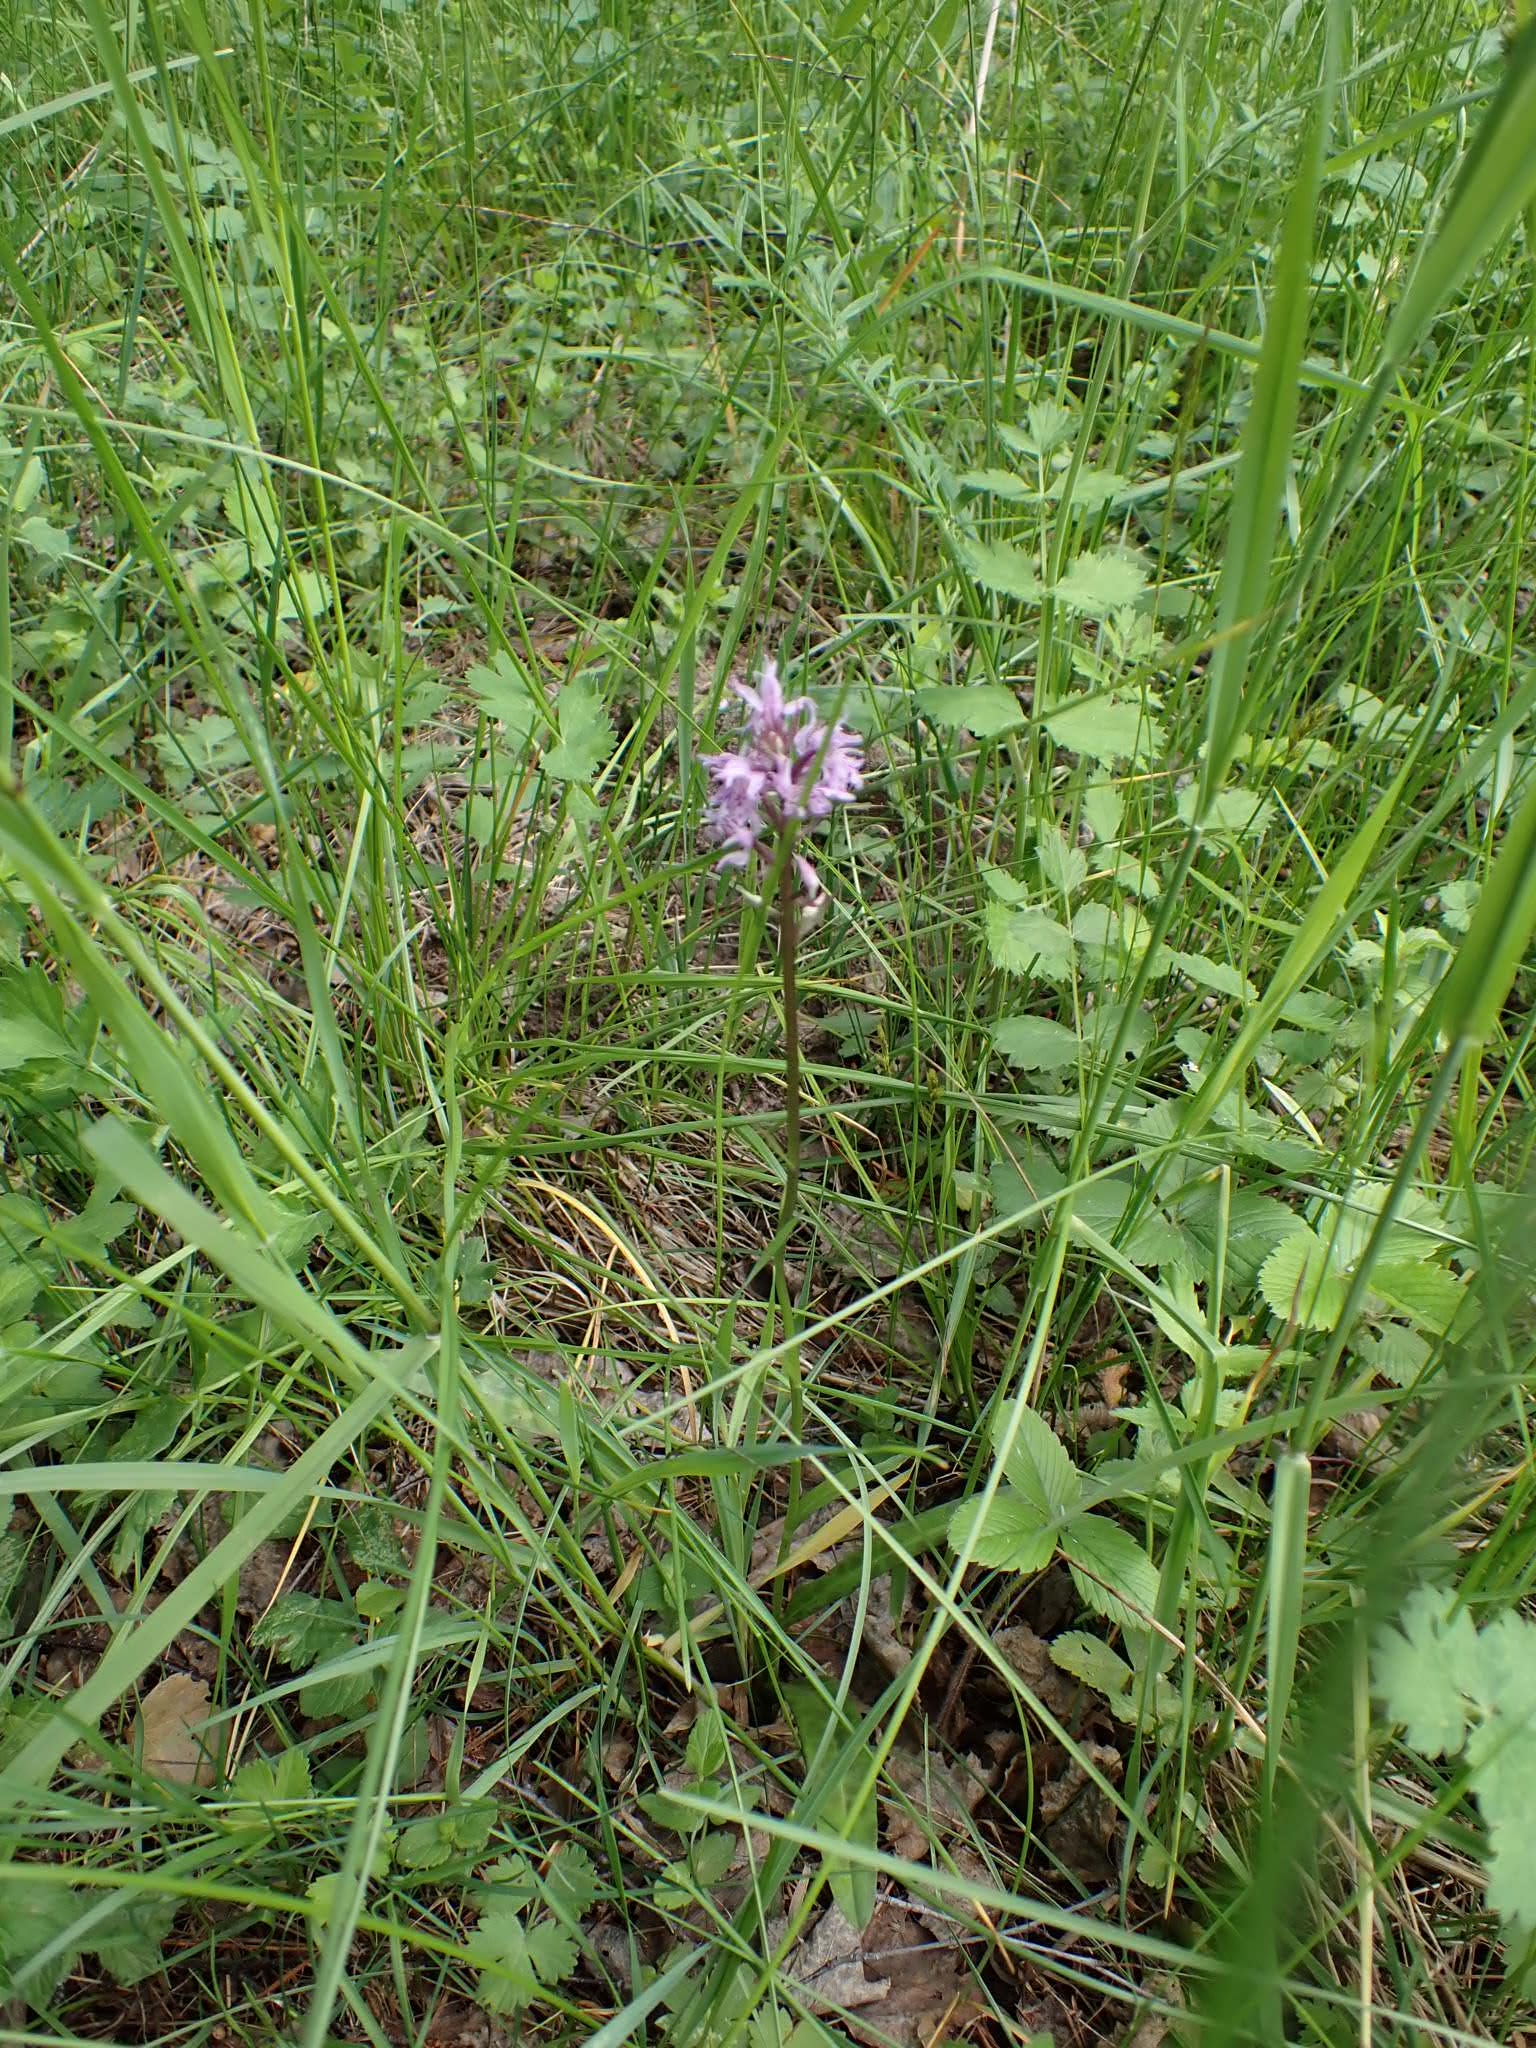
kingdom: Plantae
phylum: Tracheophyta
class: Liliopsida
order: Asparagales
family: Orchidaceae
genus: Dactylorhiza
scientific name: Dactylorhiza maculata
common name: Heath spotted-orchid
